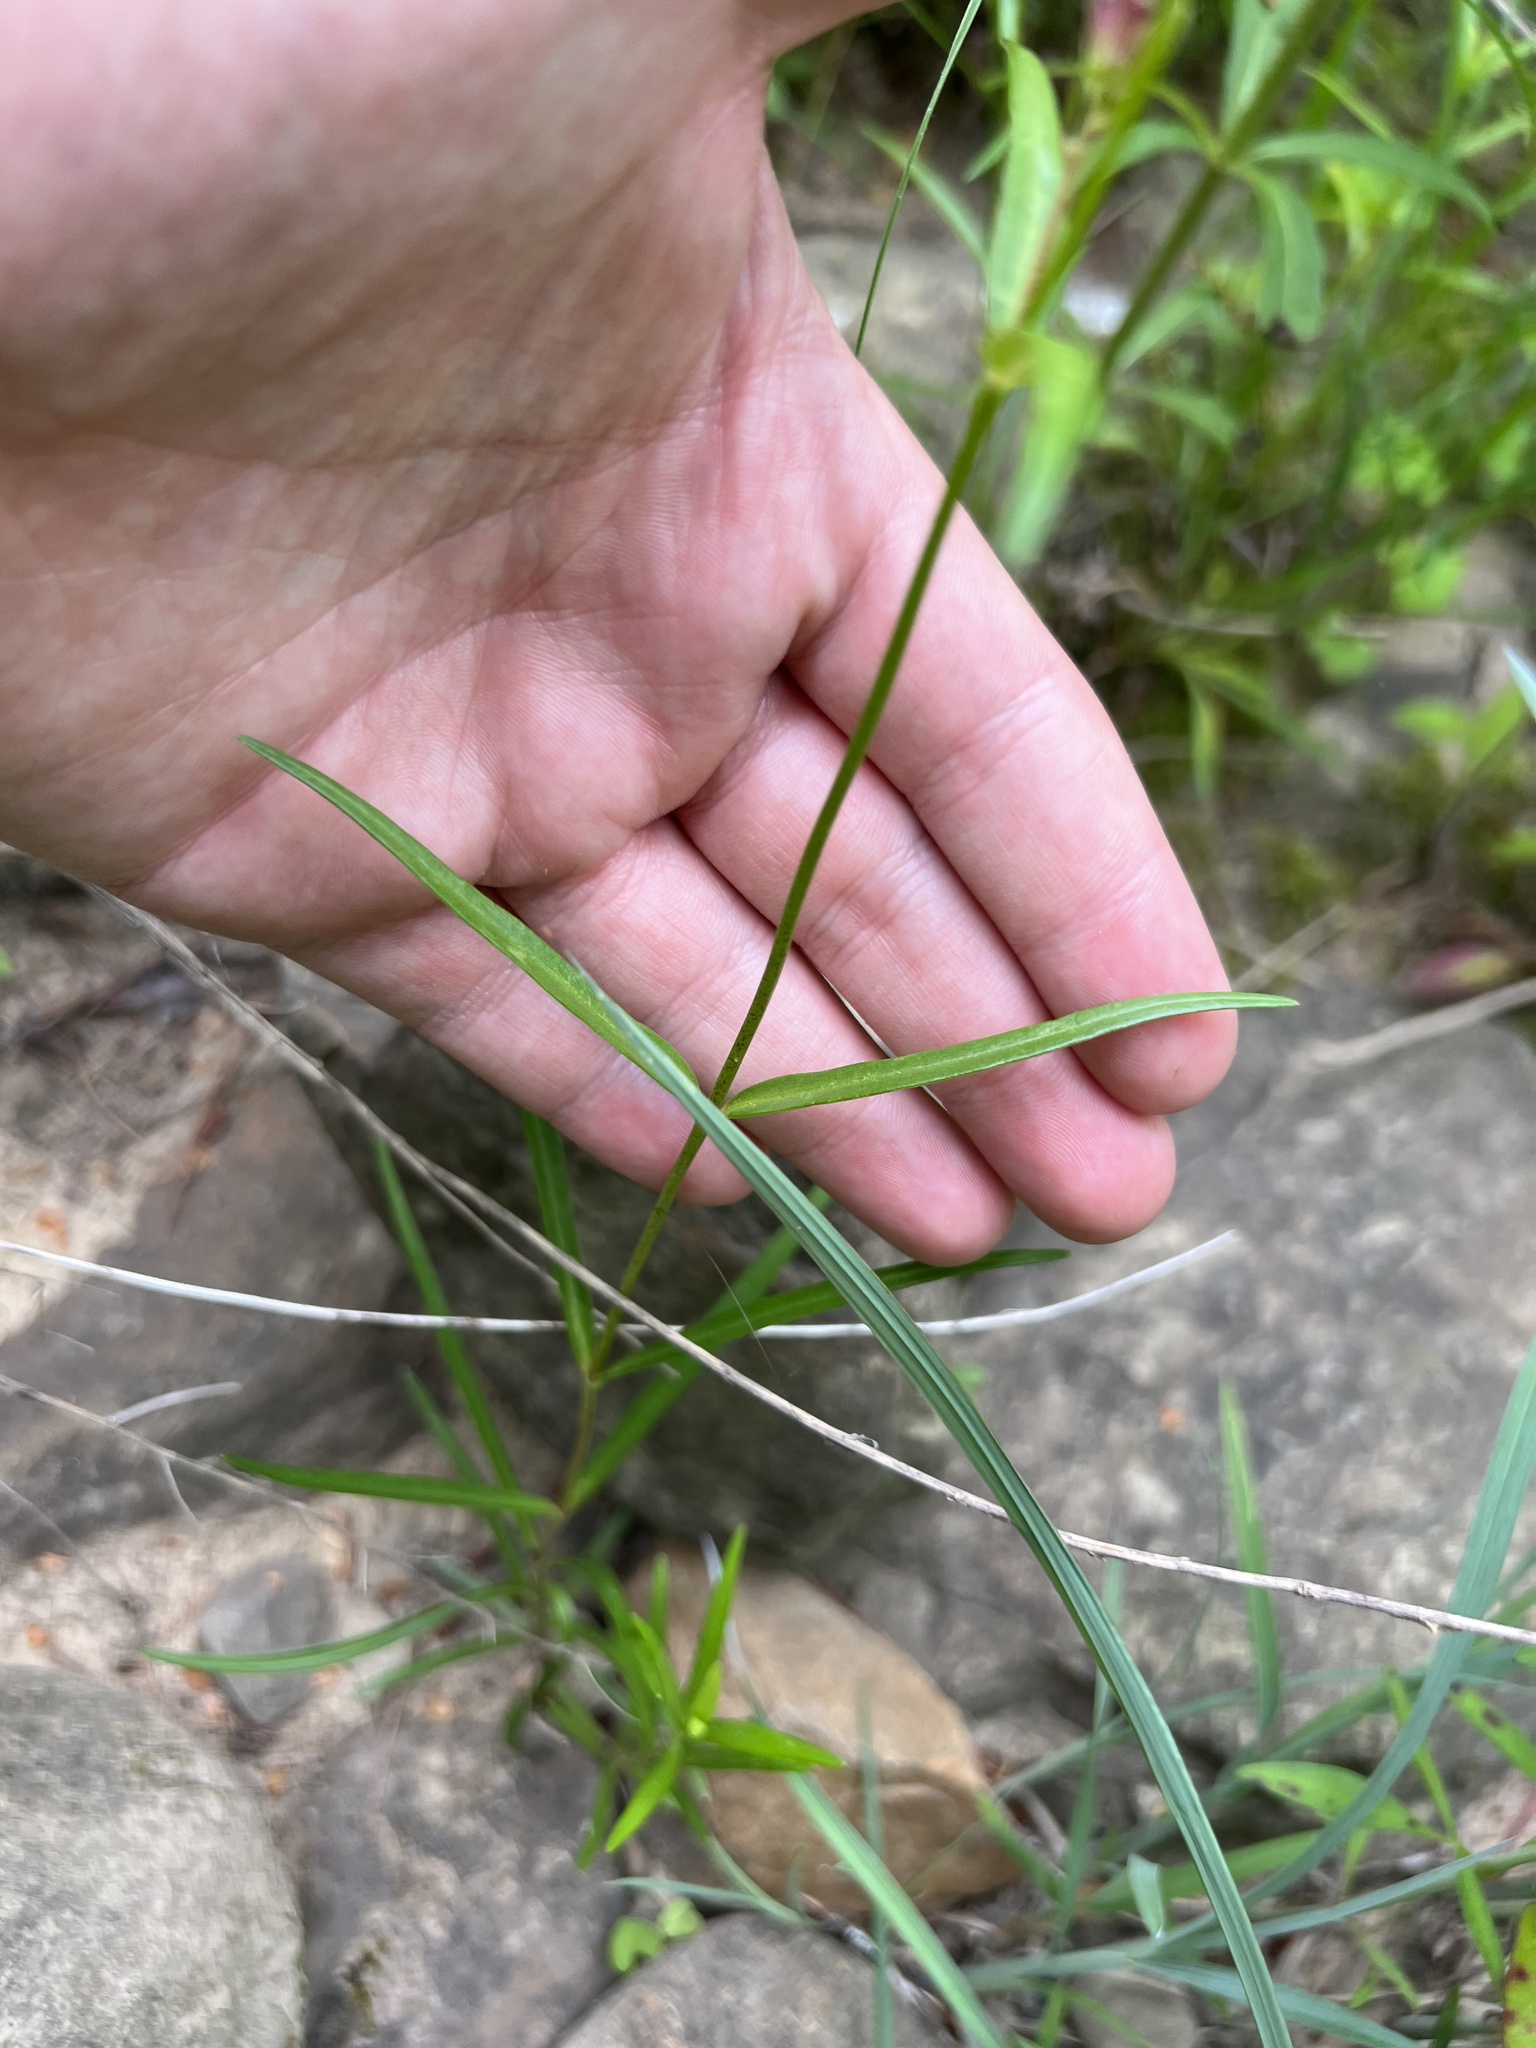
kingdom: Plantae
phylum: Tracheophyta
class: Magnoliopsida
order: Ericales
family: Polemoniaceae
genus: Phlox
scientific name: Phlox carolina
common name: Thick-leaf phlox
